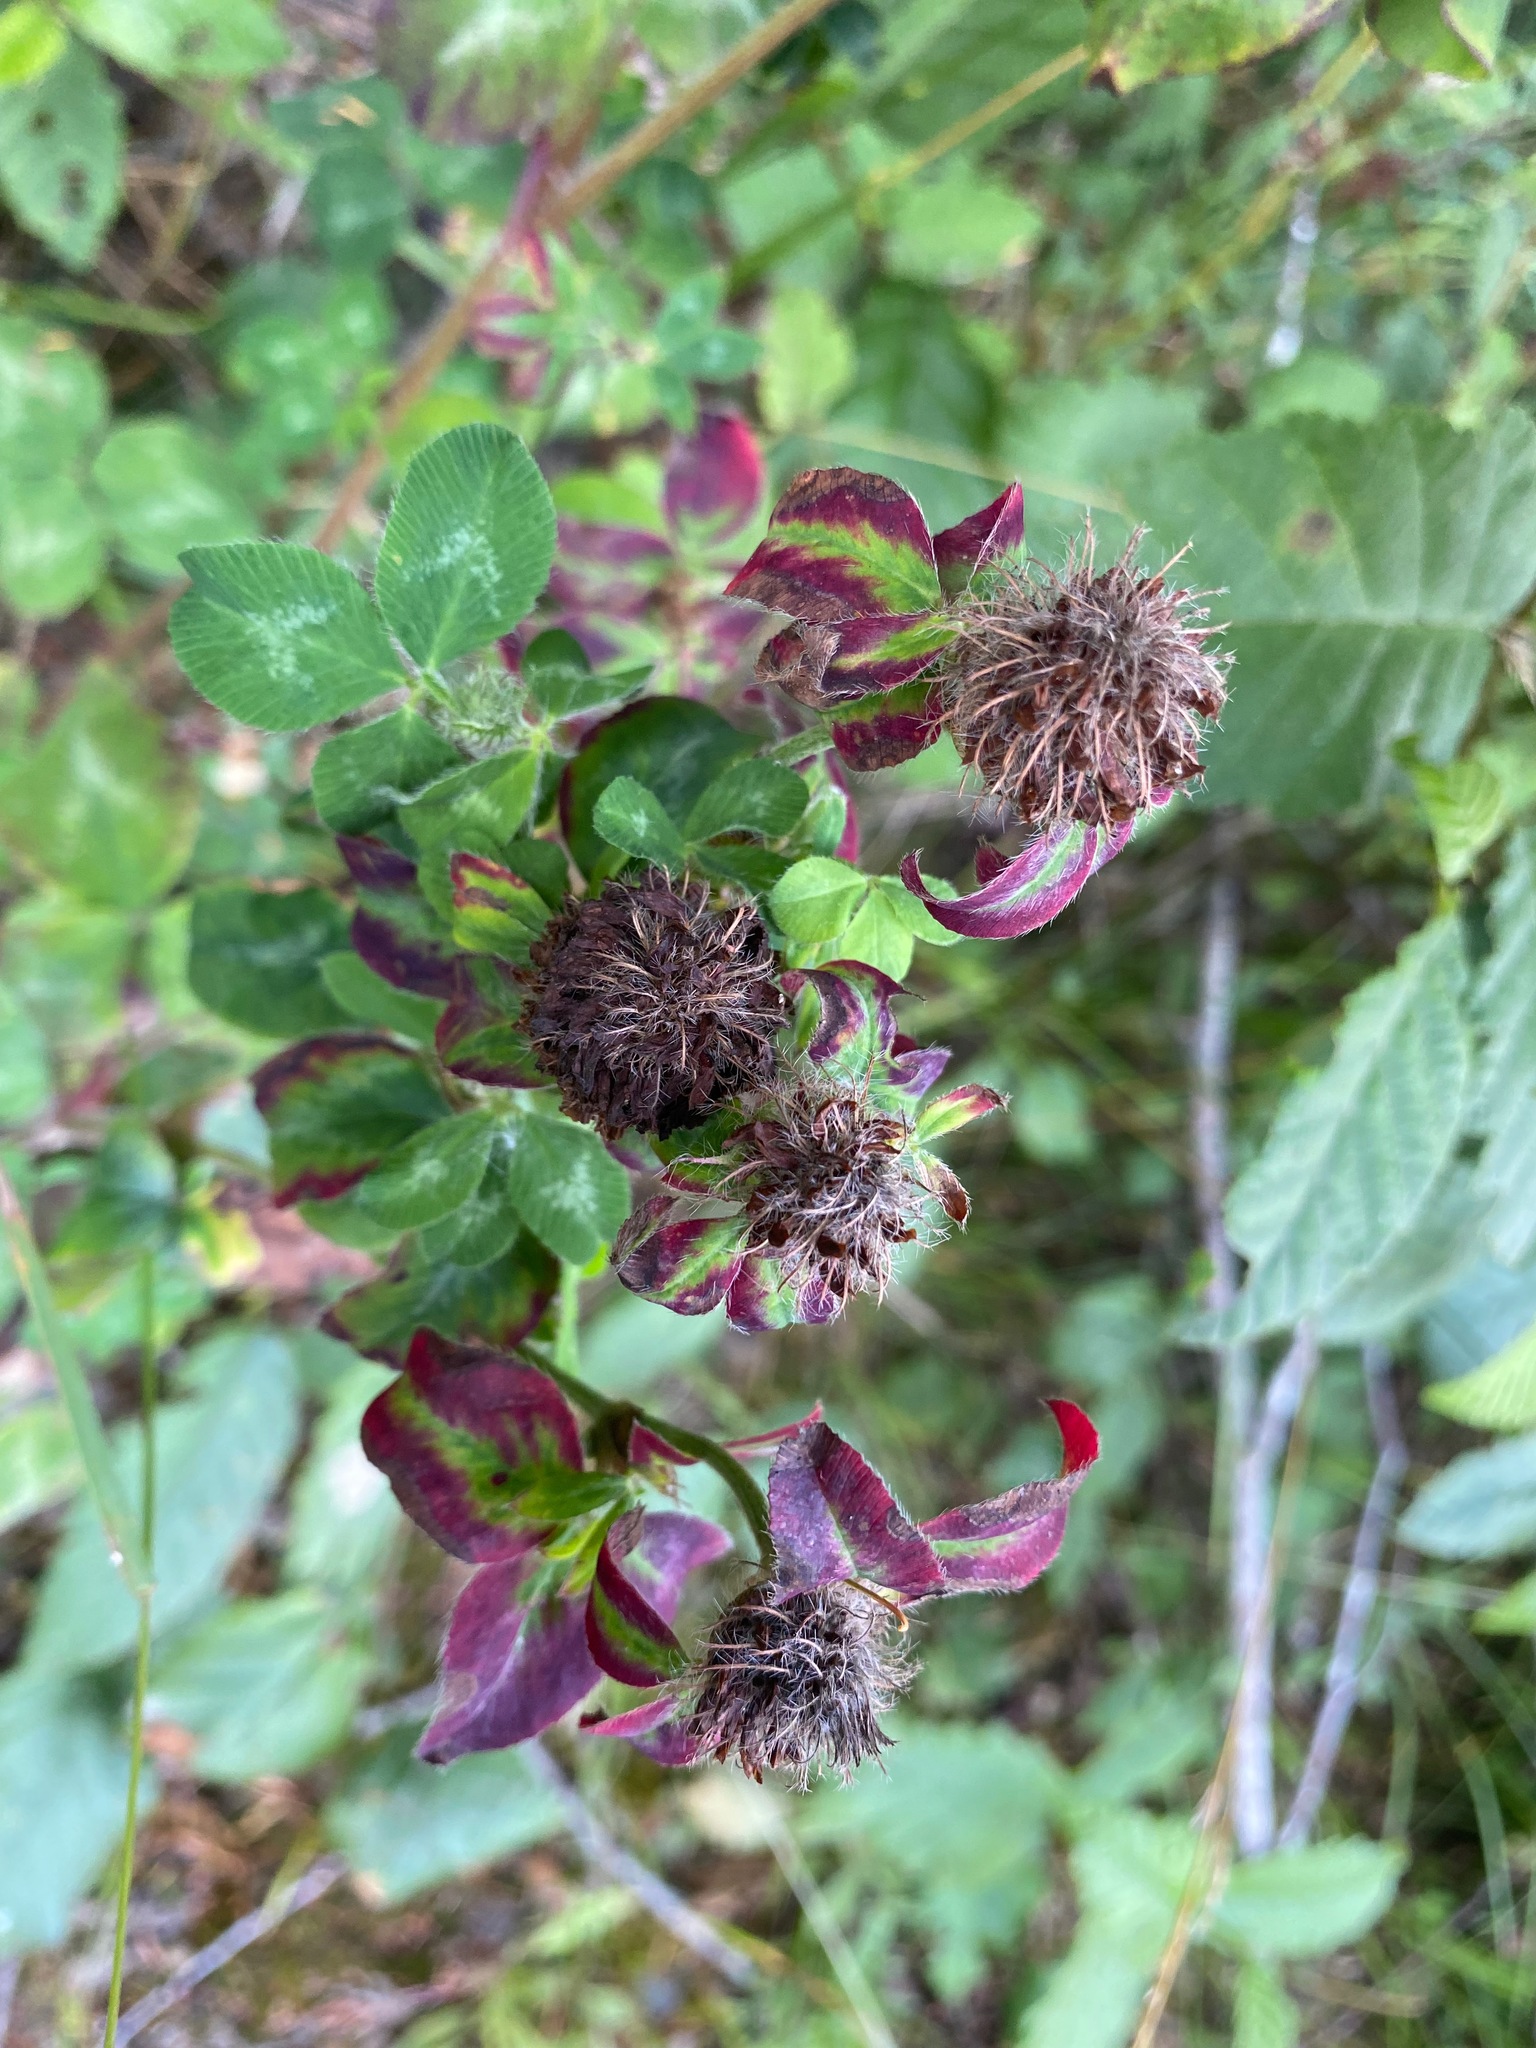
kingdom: Plantae
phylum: Tracheophyta
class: Magnoliopsida
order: Fabales
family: Fabaceae
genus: Trifolium
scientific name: Trifolium pratense
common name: Red clover
